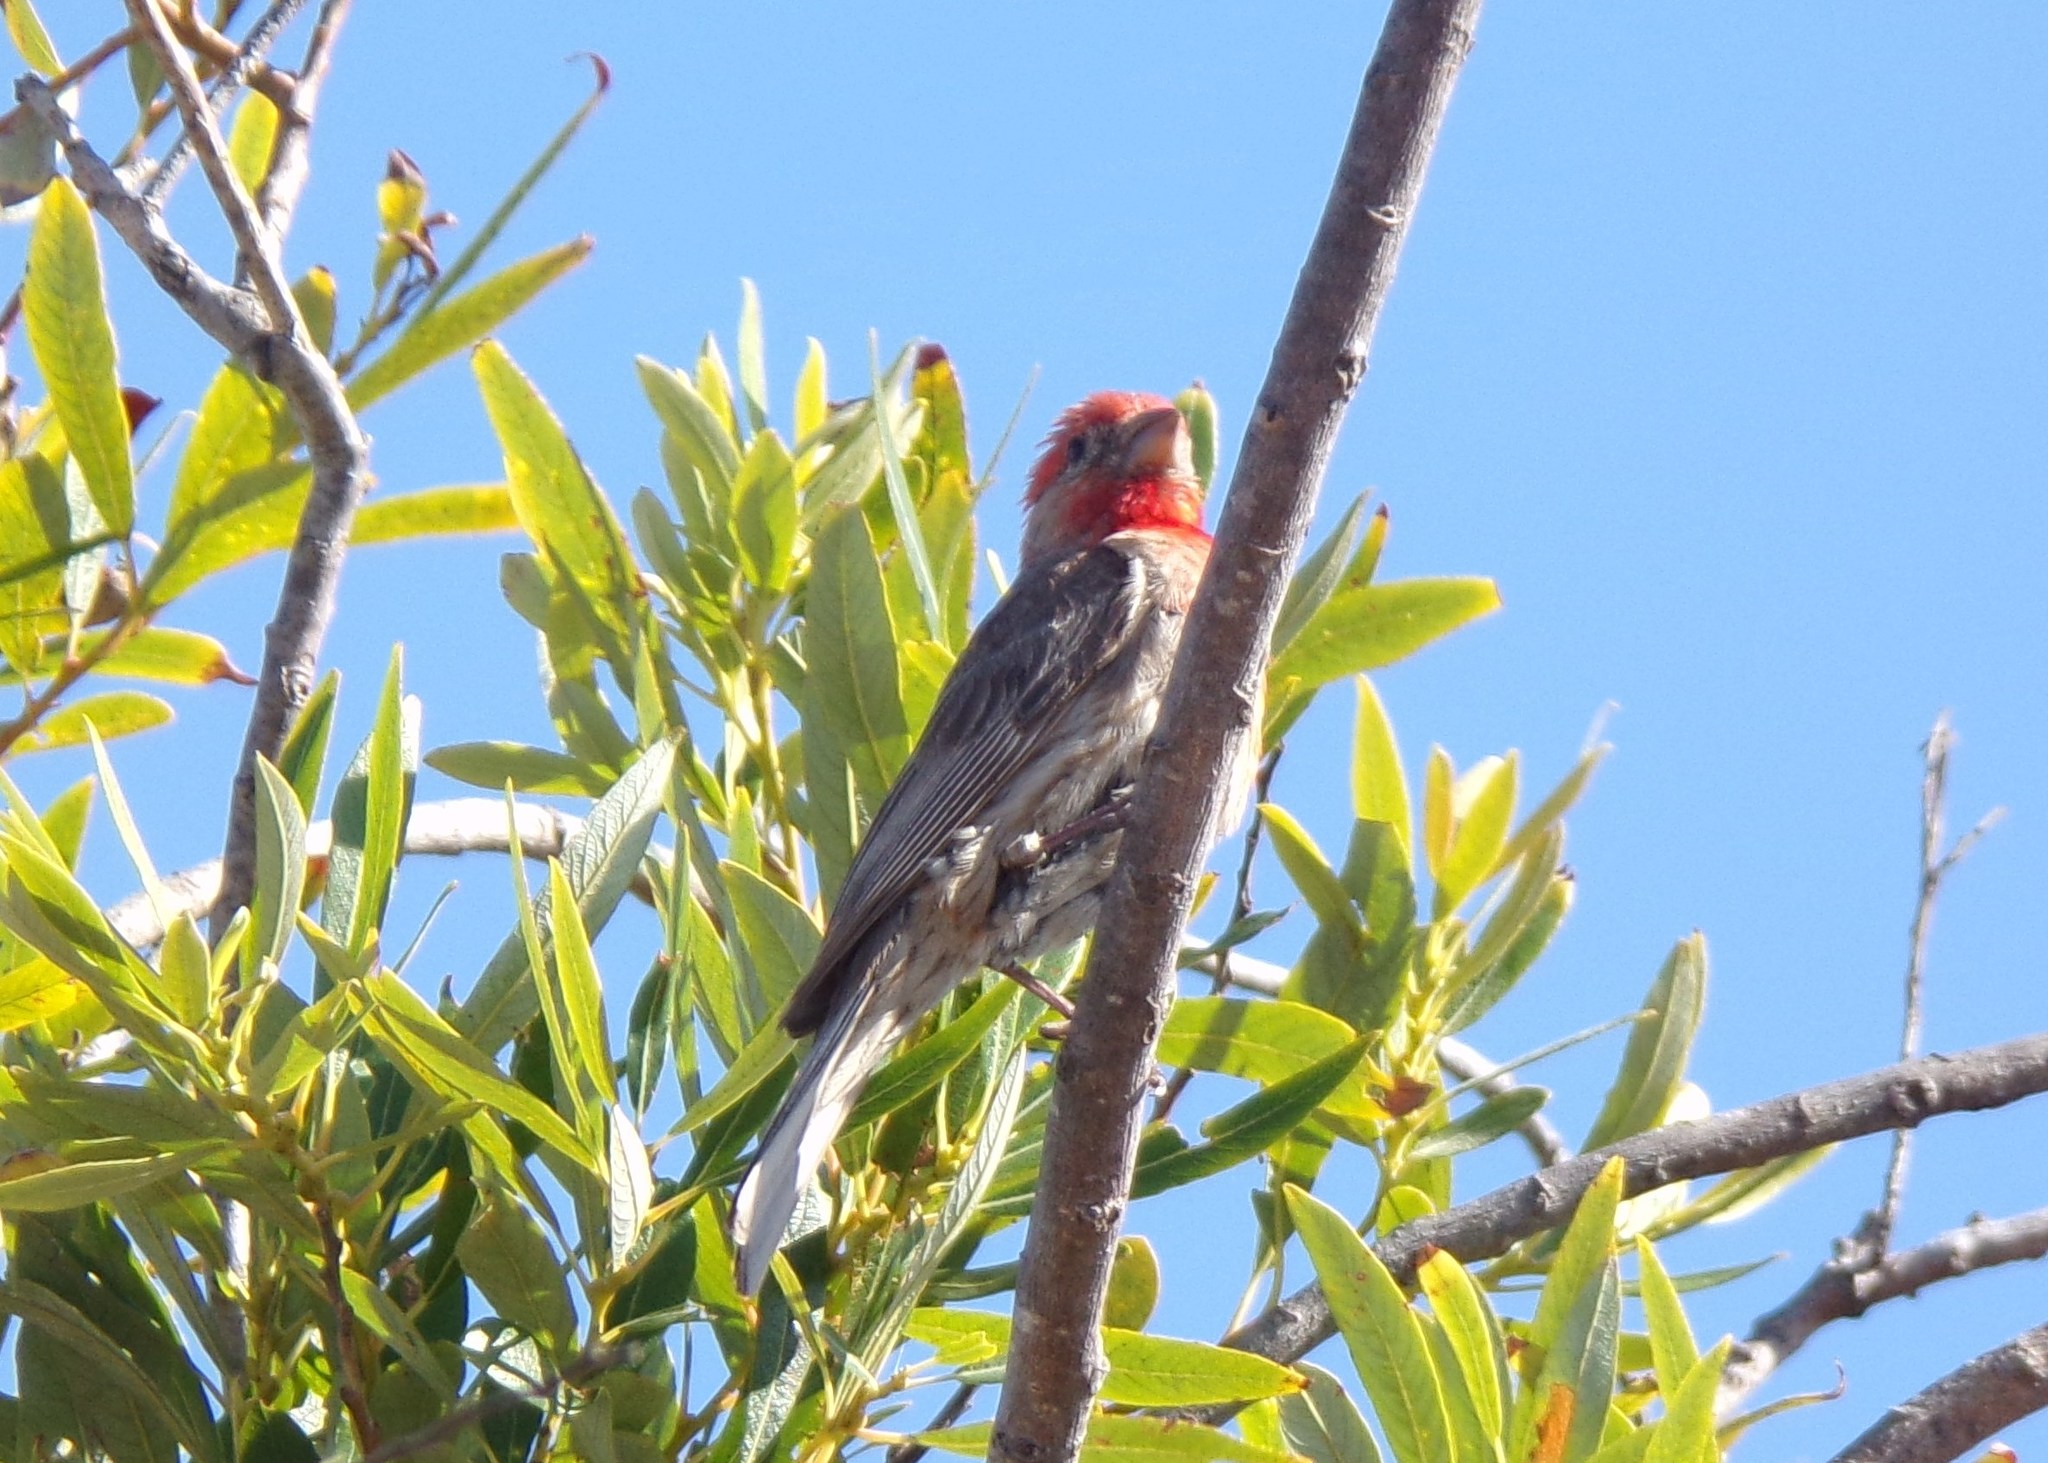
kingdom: Animalia
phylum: Chordata
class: Aves
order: Passeriformes
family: Fringillidae
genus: Haemorhous
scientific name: Haemorhous mexicanus
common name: House finch
